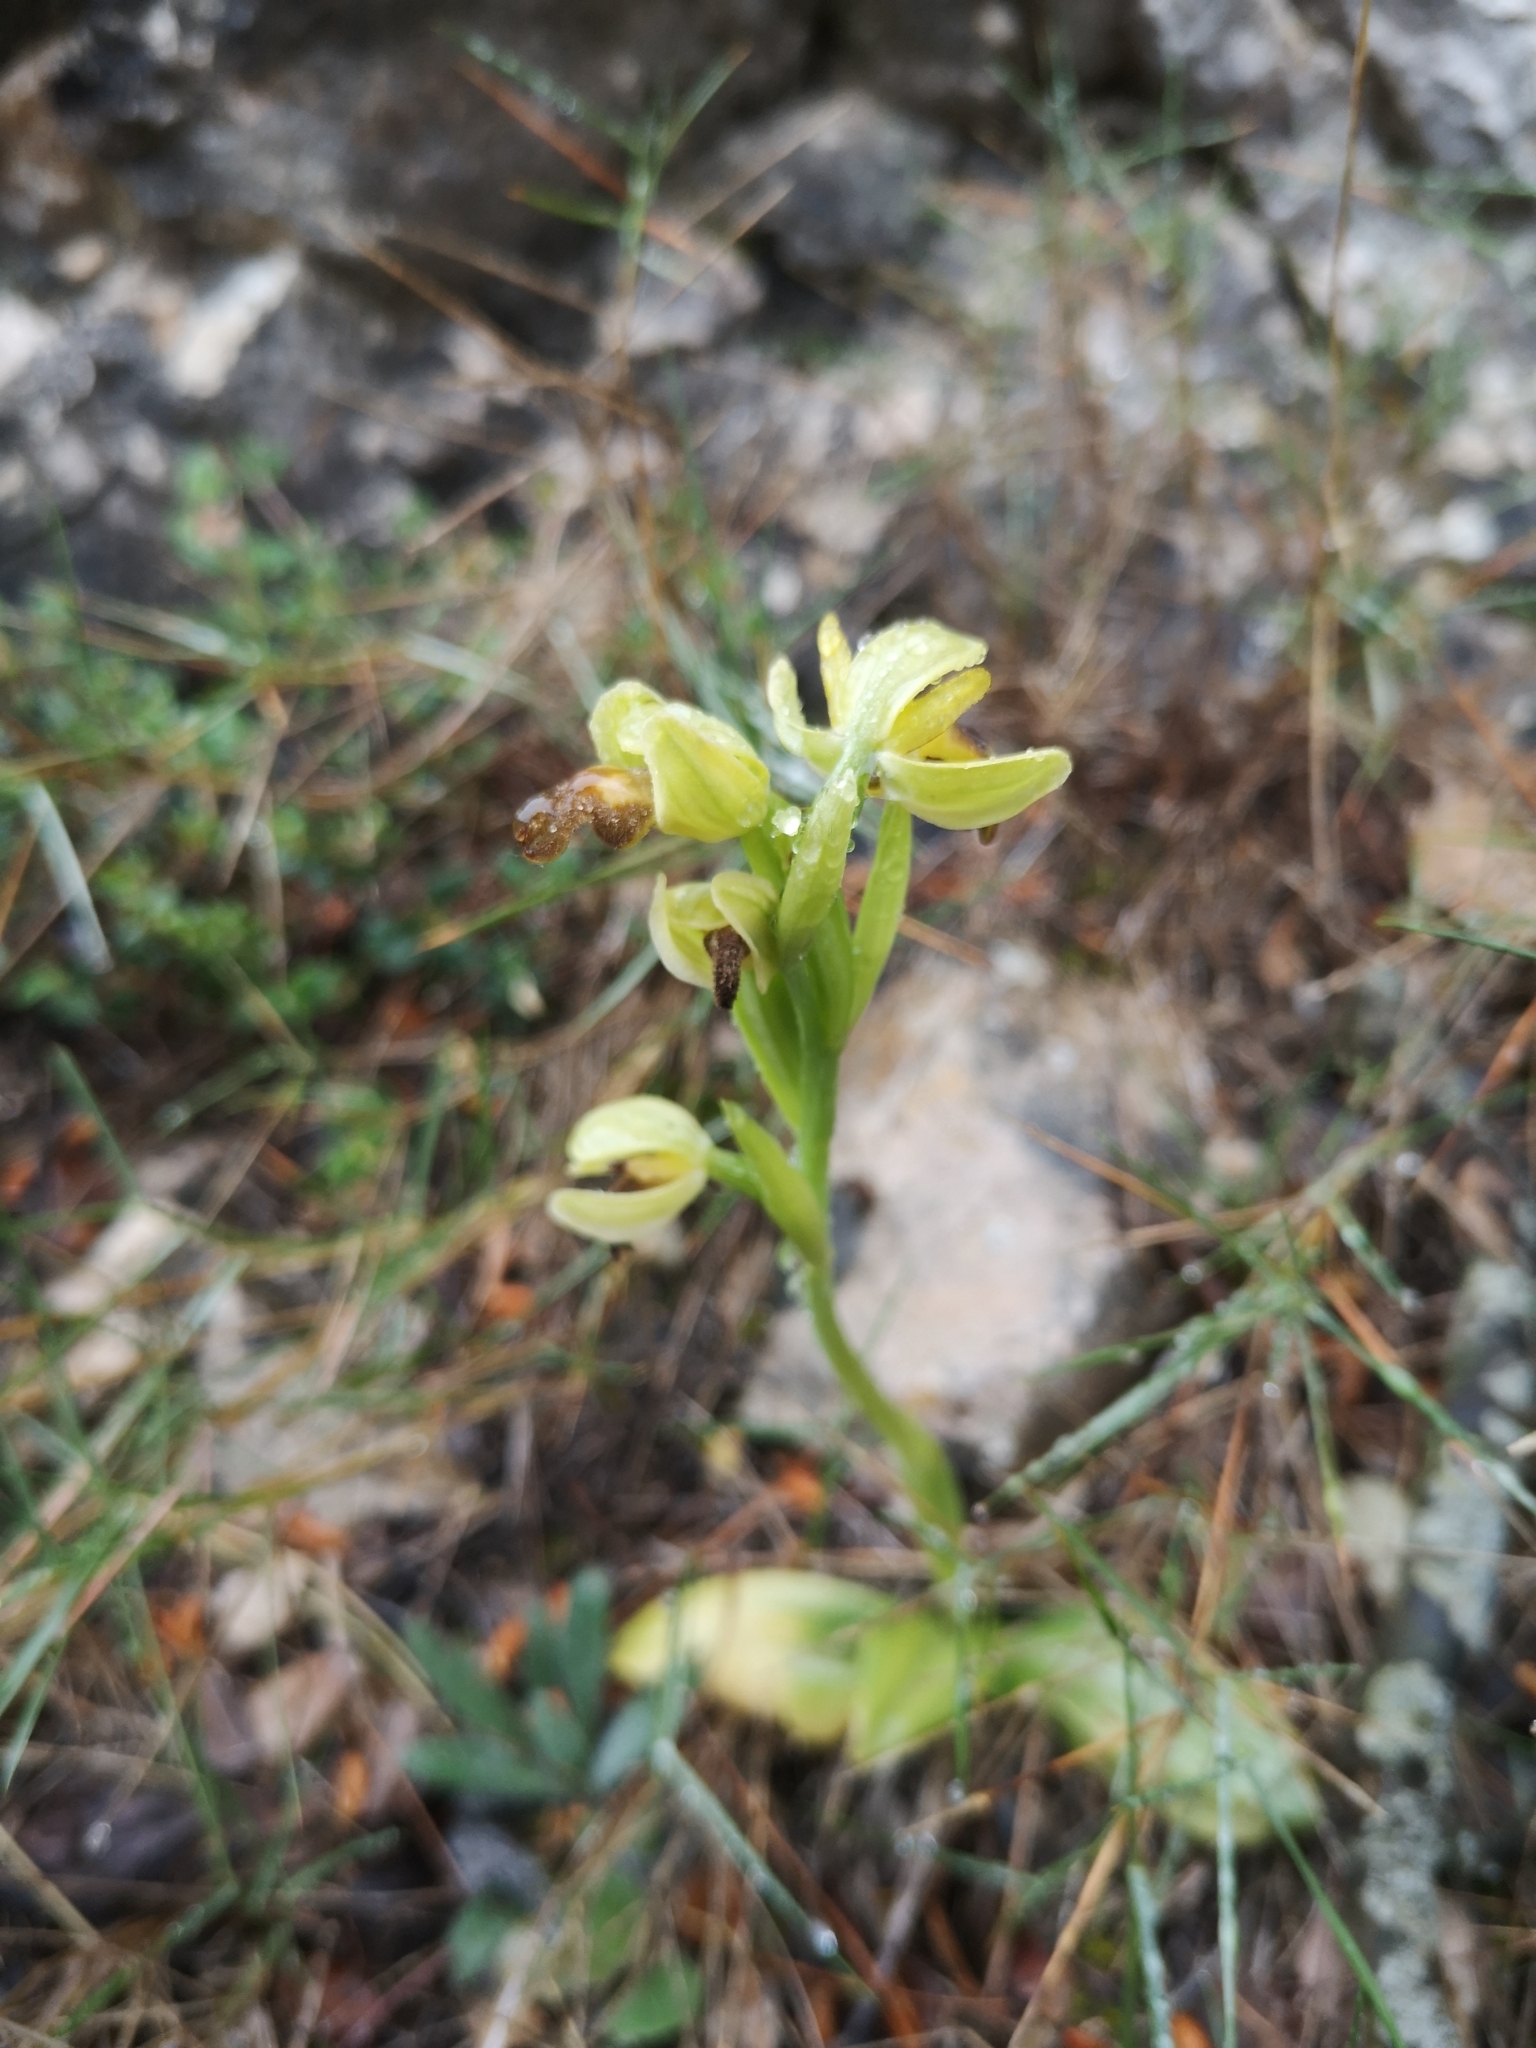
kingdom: Plantae
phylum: Tracheophyta
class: Liliopsida
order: Asparagales
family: Orchidaceae
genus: Ophrys
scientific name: Ophrys fusca
